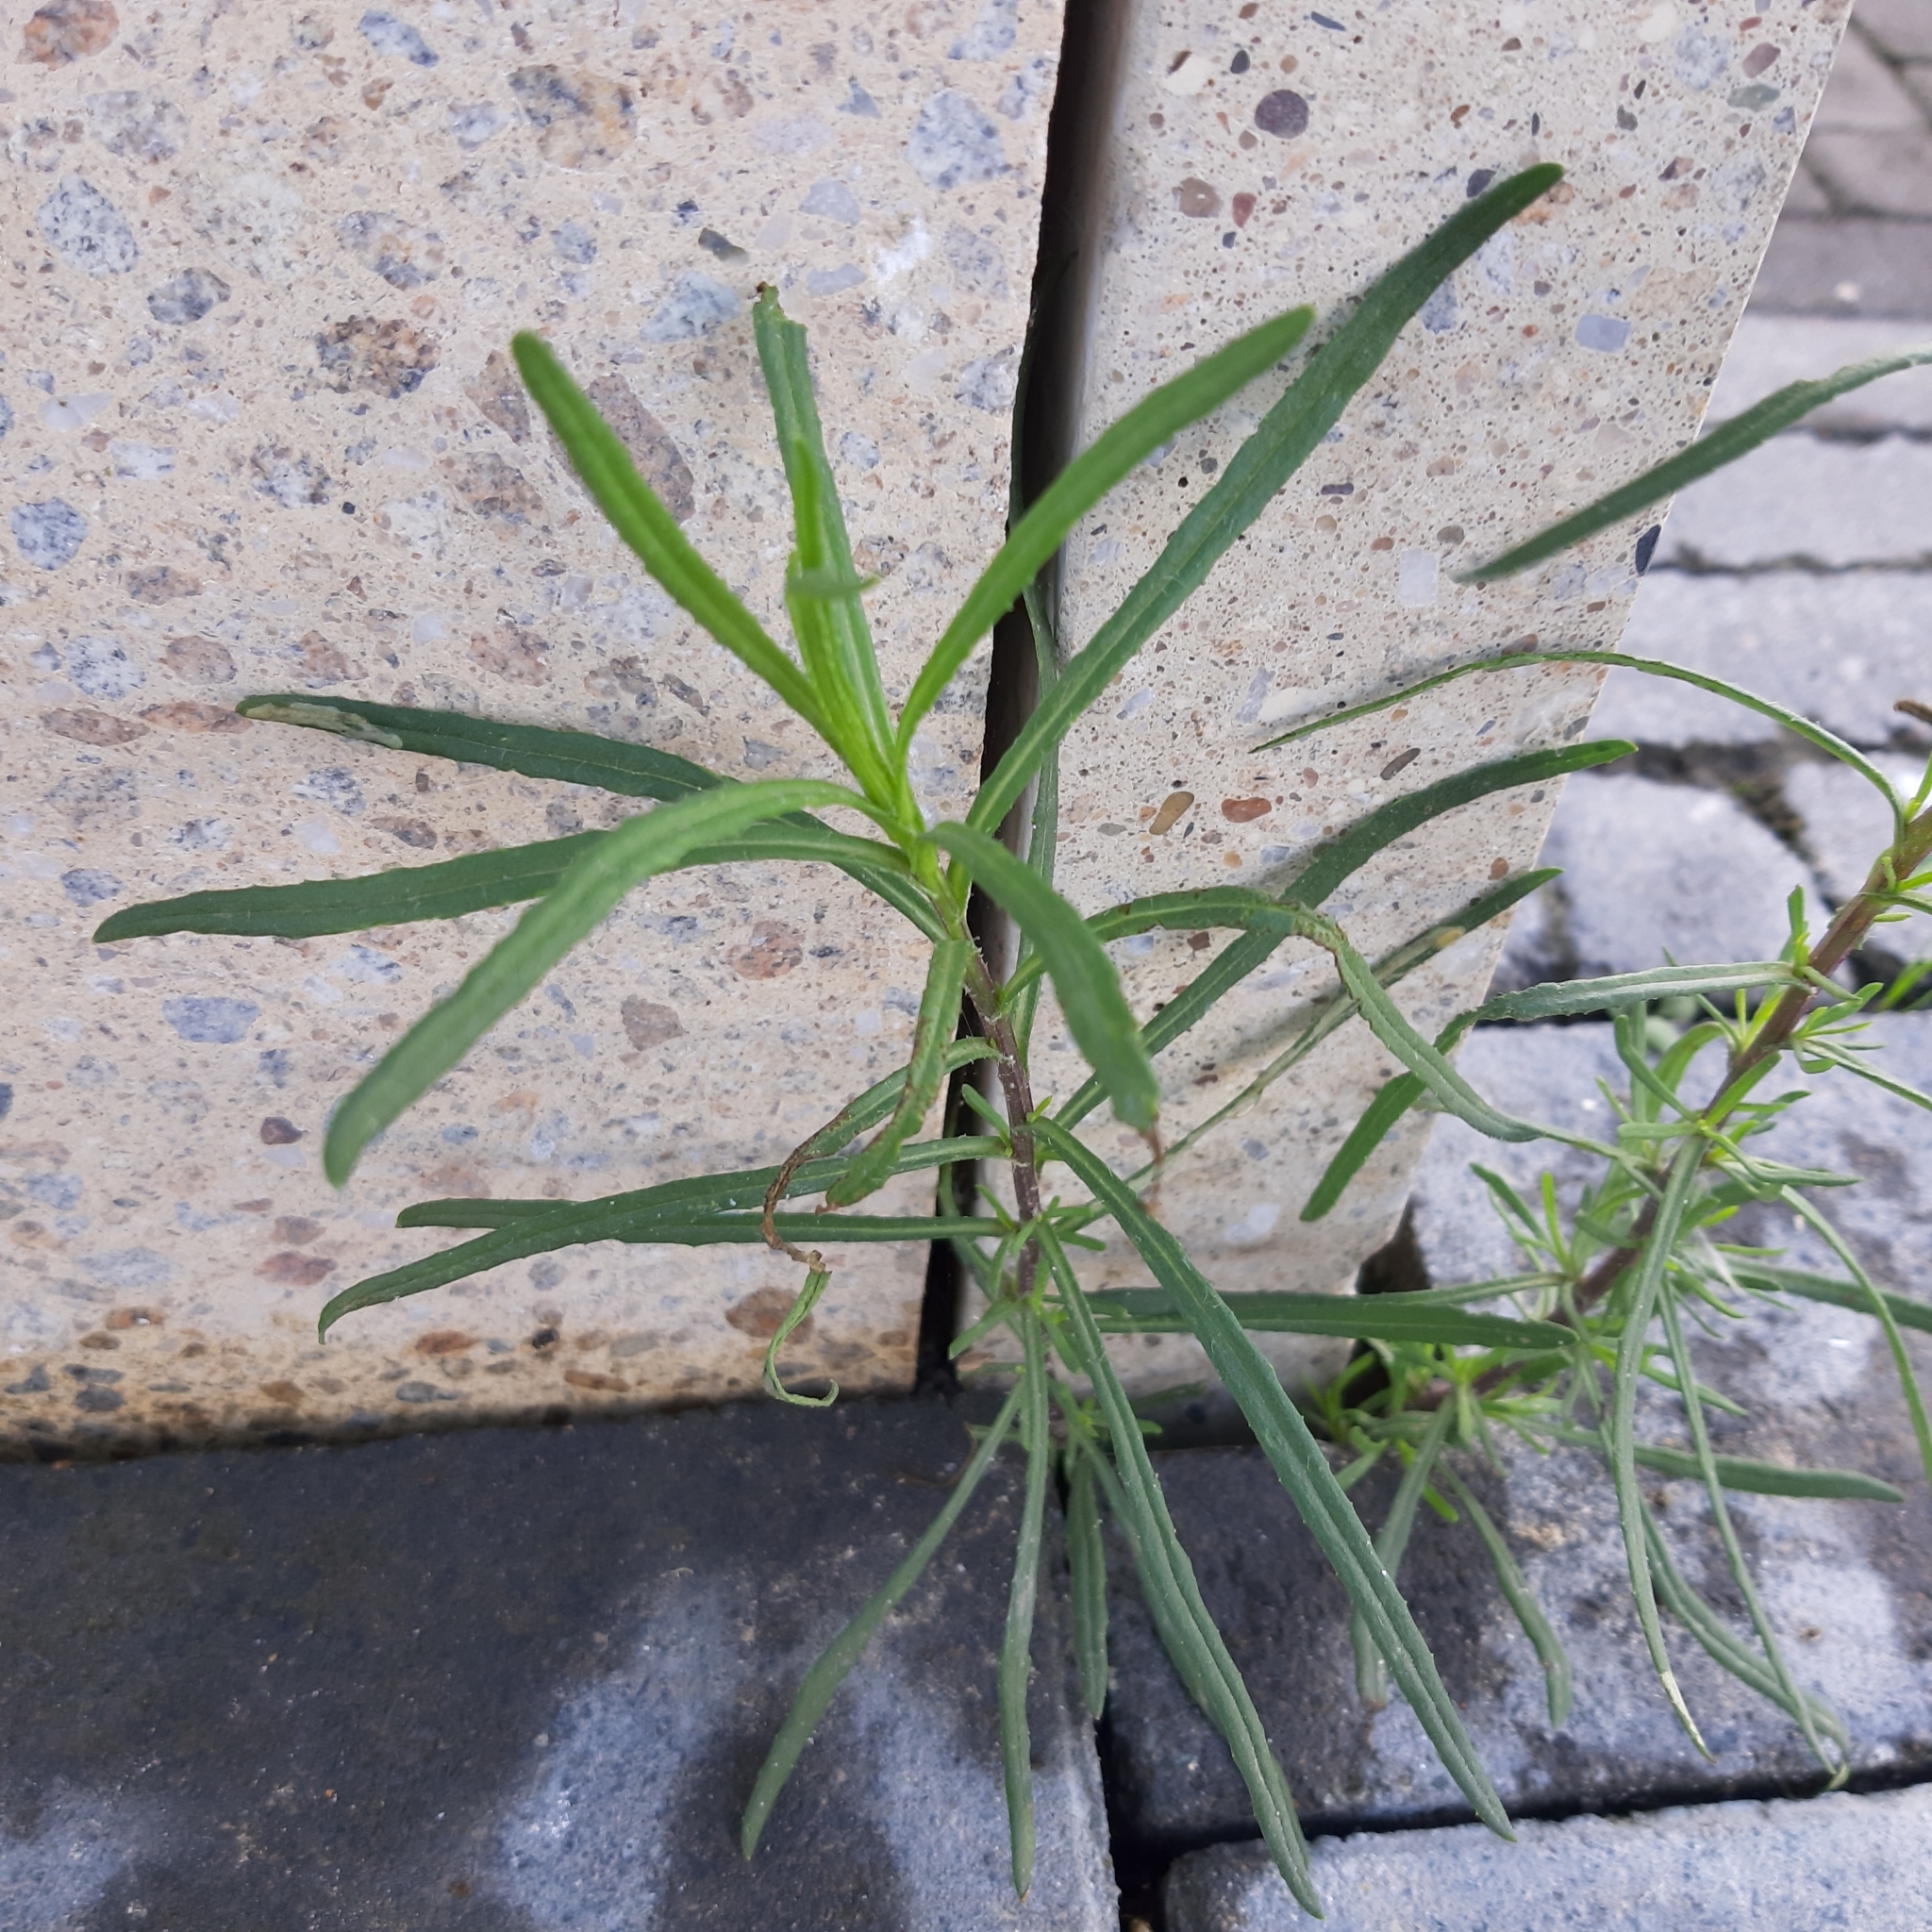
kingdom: Plantae
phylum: Tracheophyta
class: Magnoliopsida
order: Asterales
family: Asteraceae
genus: Senecio
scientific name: Senecio inaequidens
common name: Narrow-leaved ragwort
